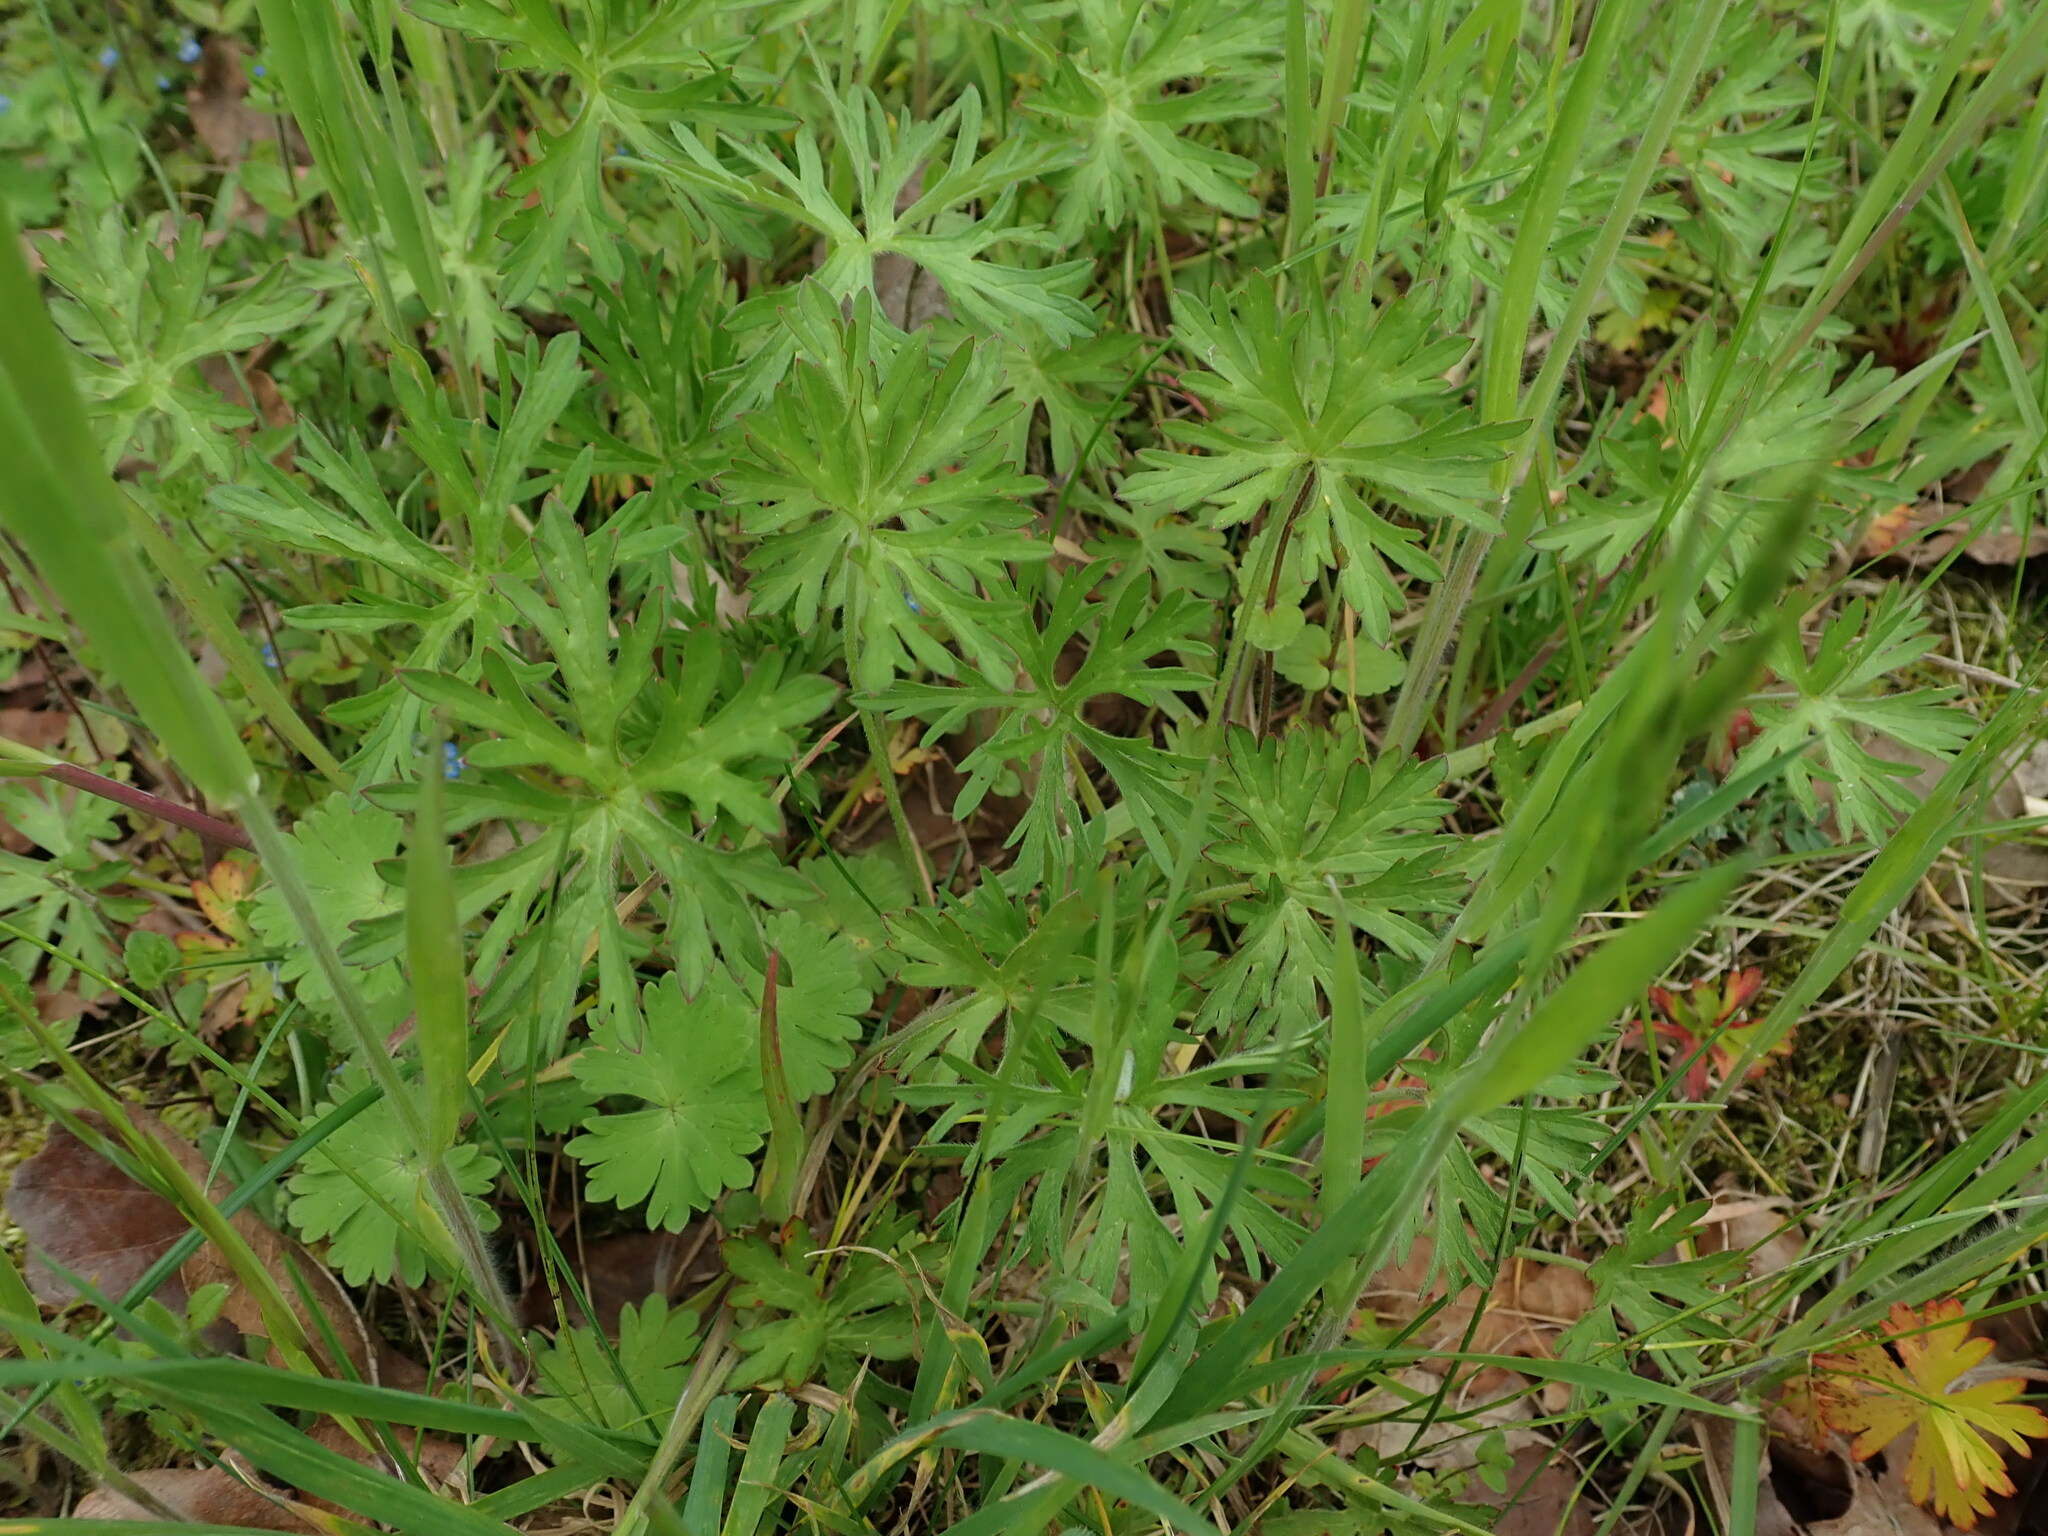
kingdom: Plantae
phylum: Tracheophyta
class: Magnoliopsida
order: Geraniales
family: Geraniaceae
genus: Geranium
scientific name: Geranium dissectum
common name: Cut-leaved crane's-bill
